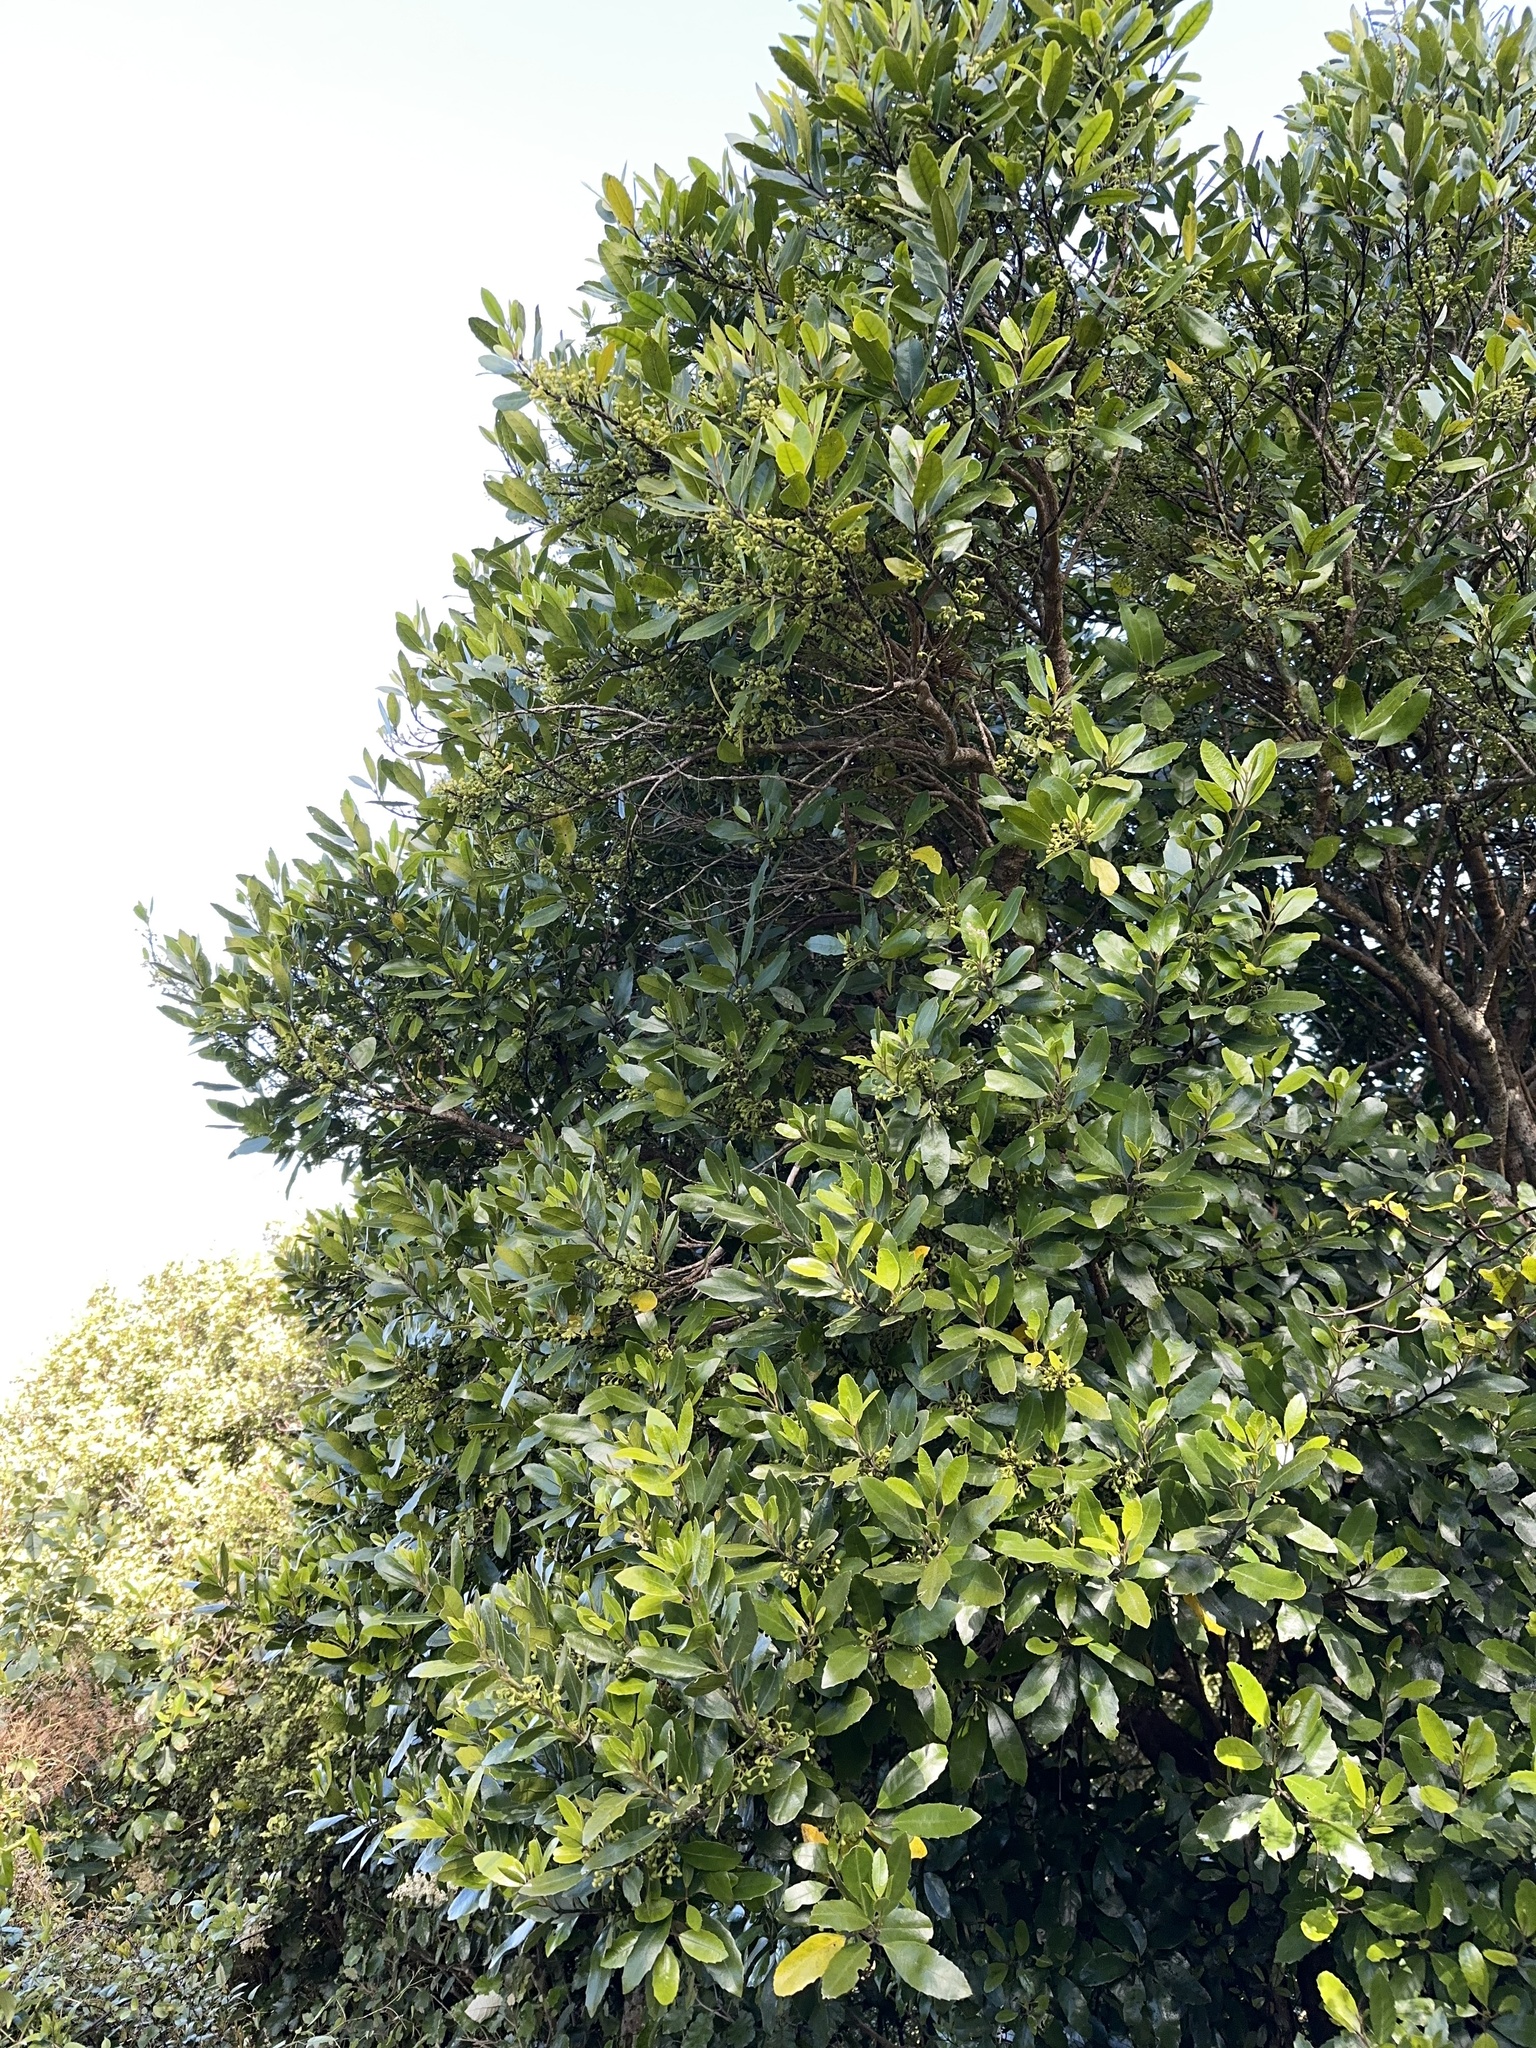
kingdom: Plantae
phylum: Tracheophyta
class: Magnoliopsida
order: Laurales
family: Monimiaceae
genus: Hedycarya
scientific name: Hedycarya arborea
